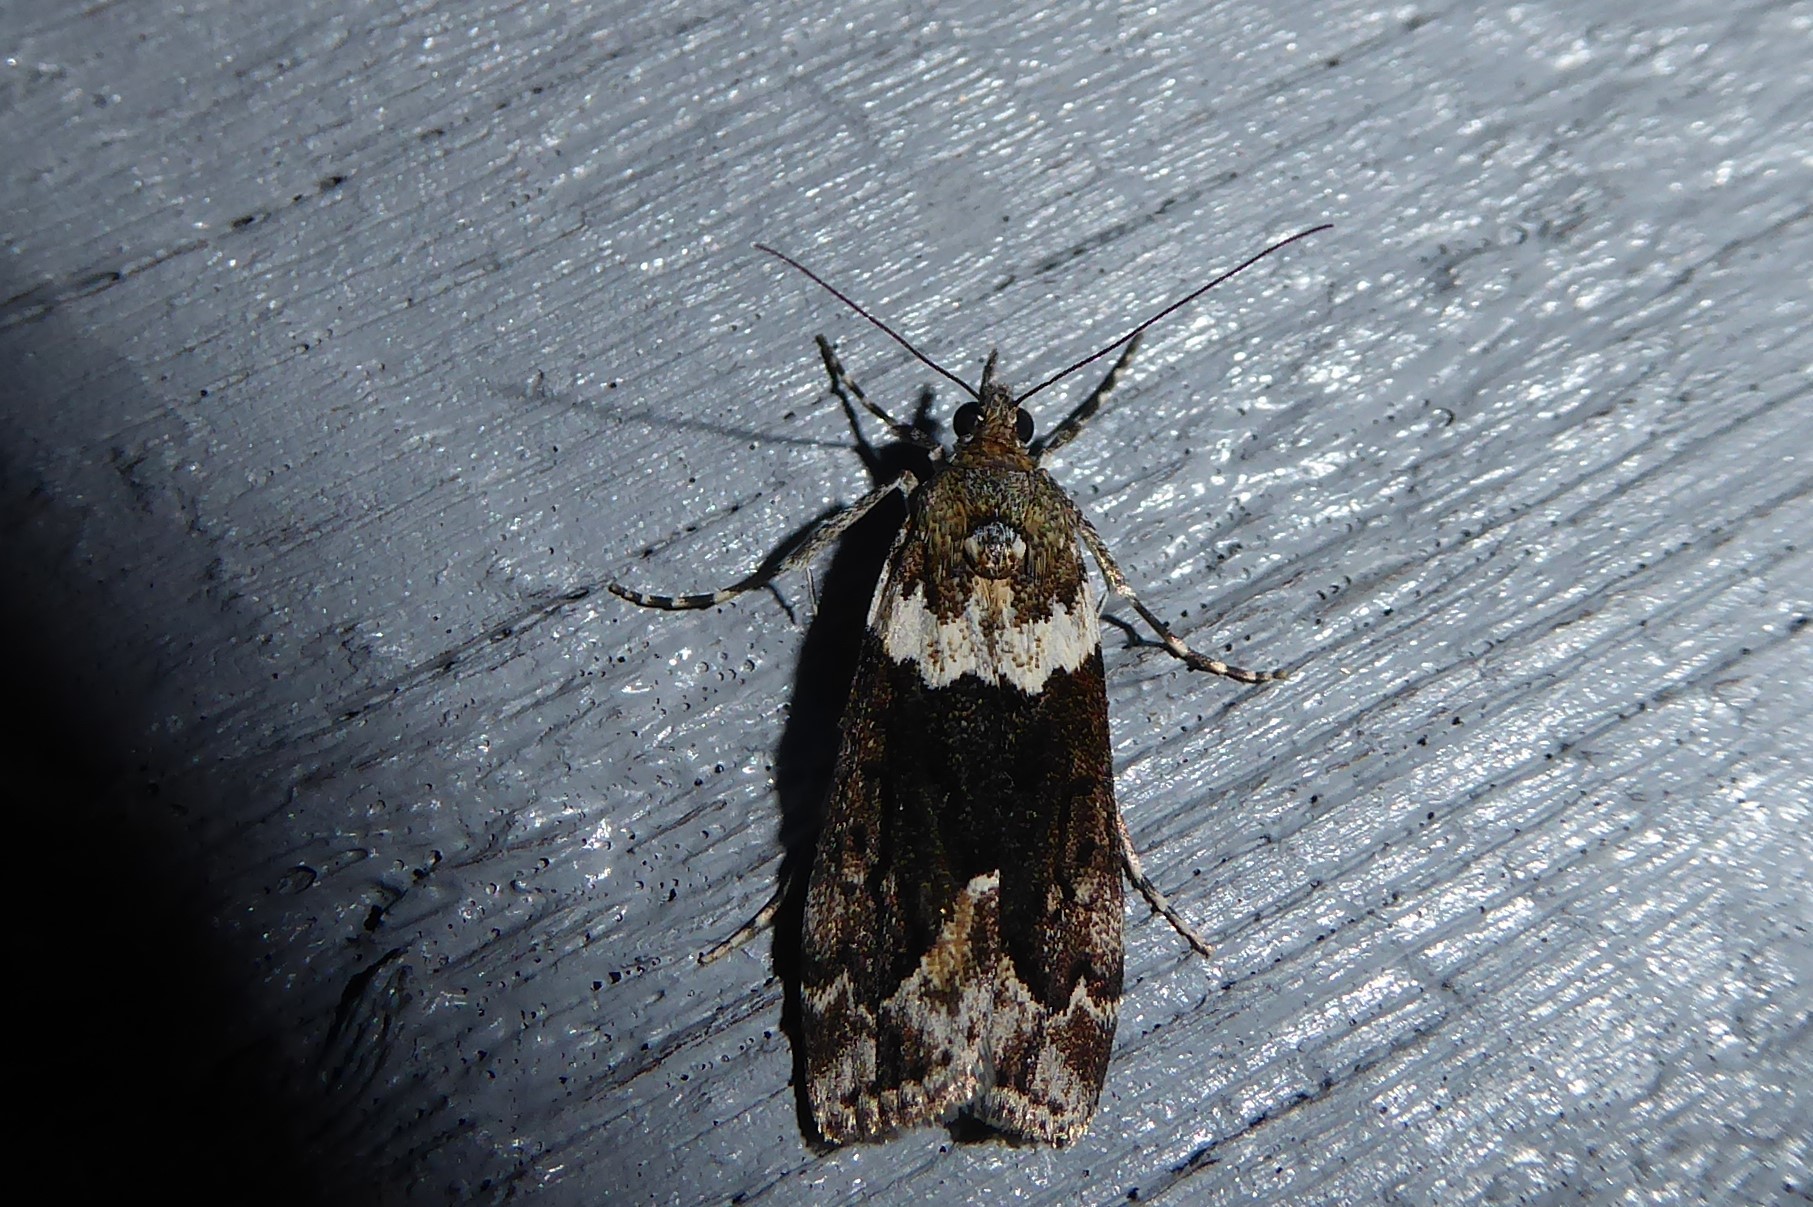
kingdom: Animalia
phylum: Arthropoda
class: Insecta
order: Lepidoptera
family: Crambidae
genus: Eudonia
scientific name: Eudonia submarginalis
